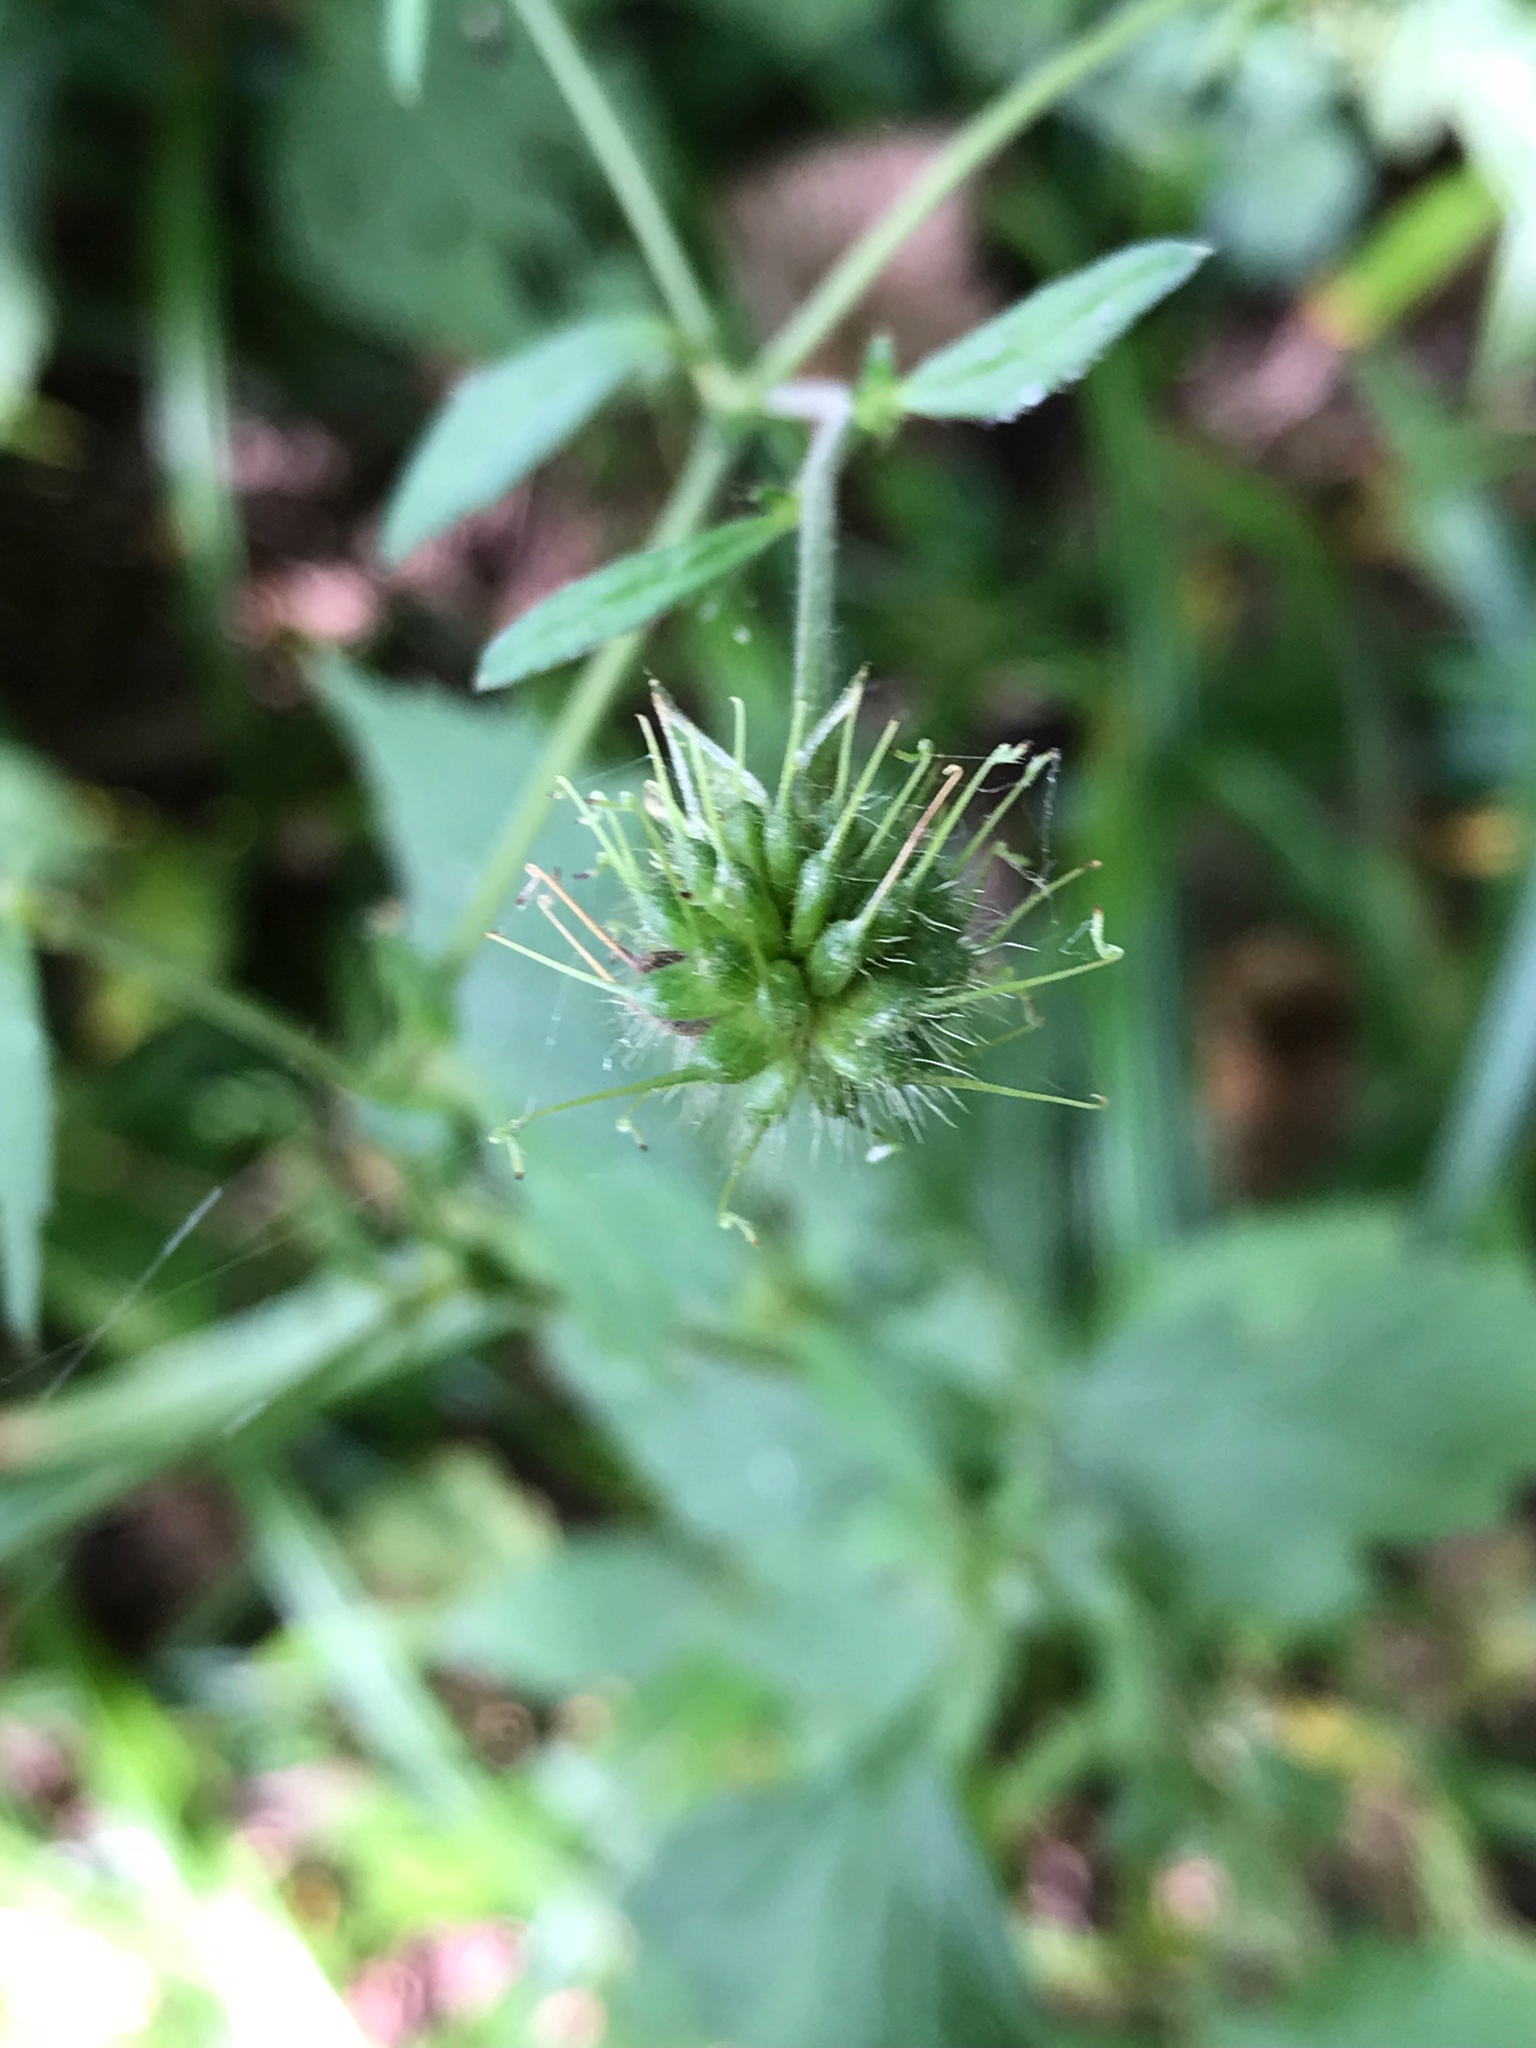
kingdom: Plantae
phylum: Tracheophyta
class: Magnoliopsida
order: Rosales
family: Rosaceae
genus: Geum
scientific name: Geum canadense
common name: White avens
